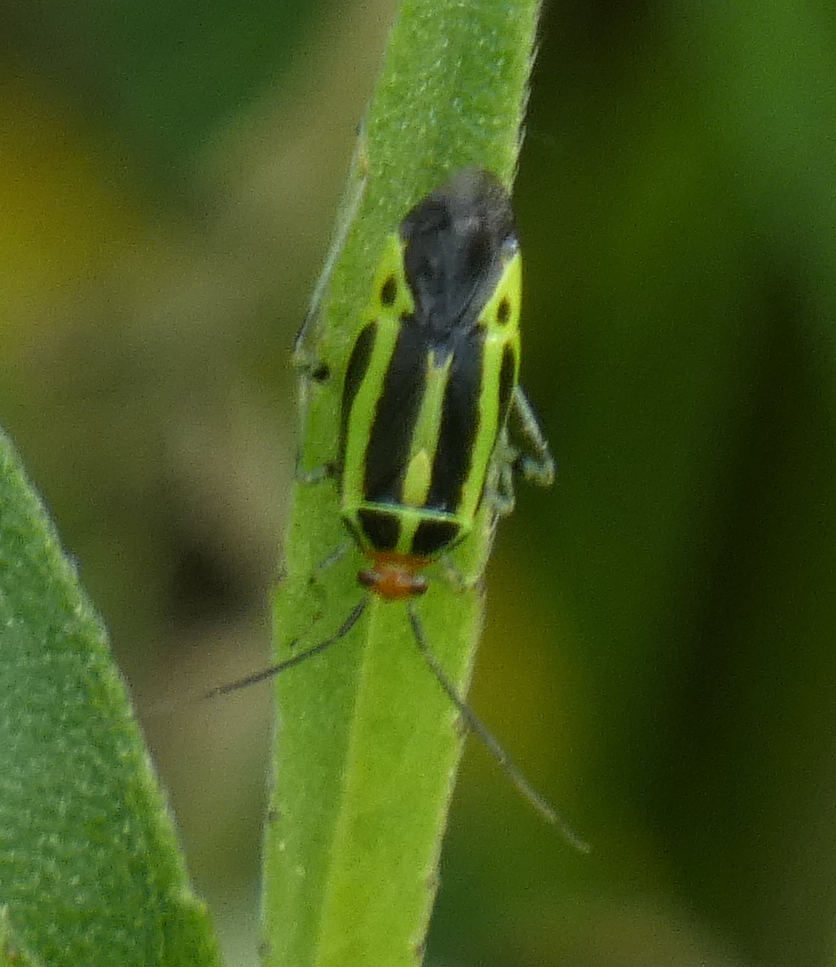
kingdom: Animalia
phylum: Arthropoda
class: Insecta
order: Hemiptera
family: Miridae
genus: Poecilocapsus
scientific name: Poecilocapsus lineatus
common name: Four-lined plant bug
